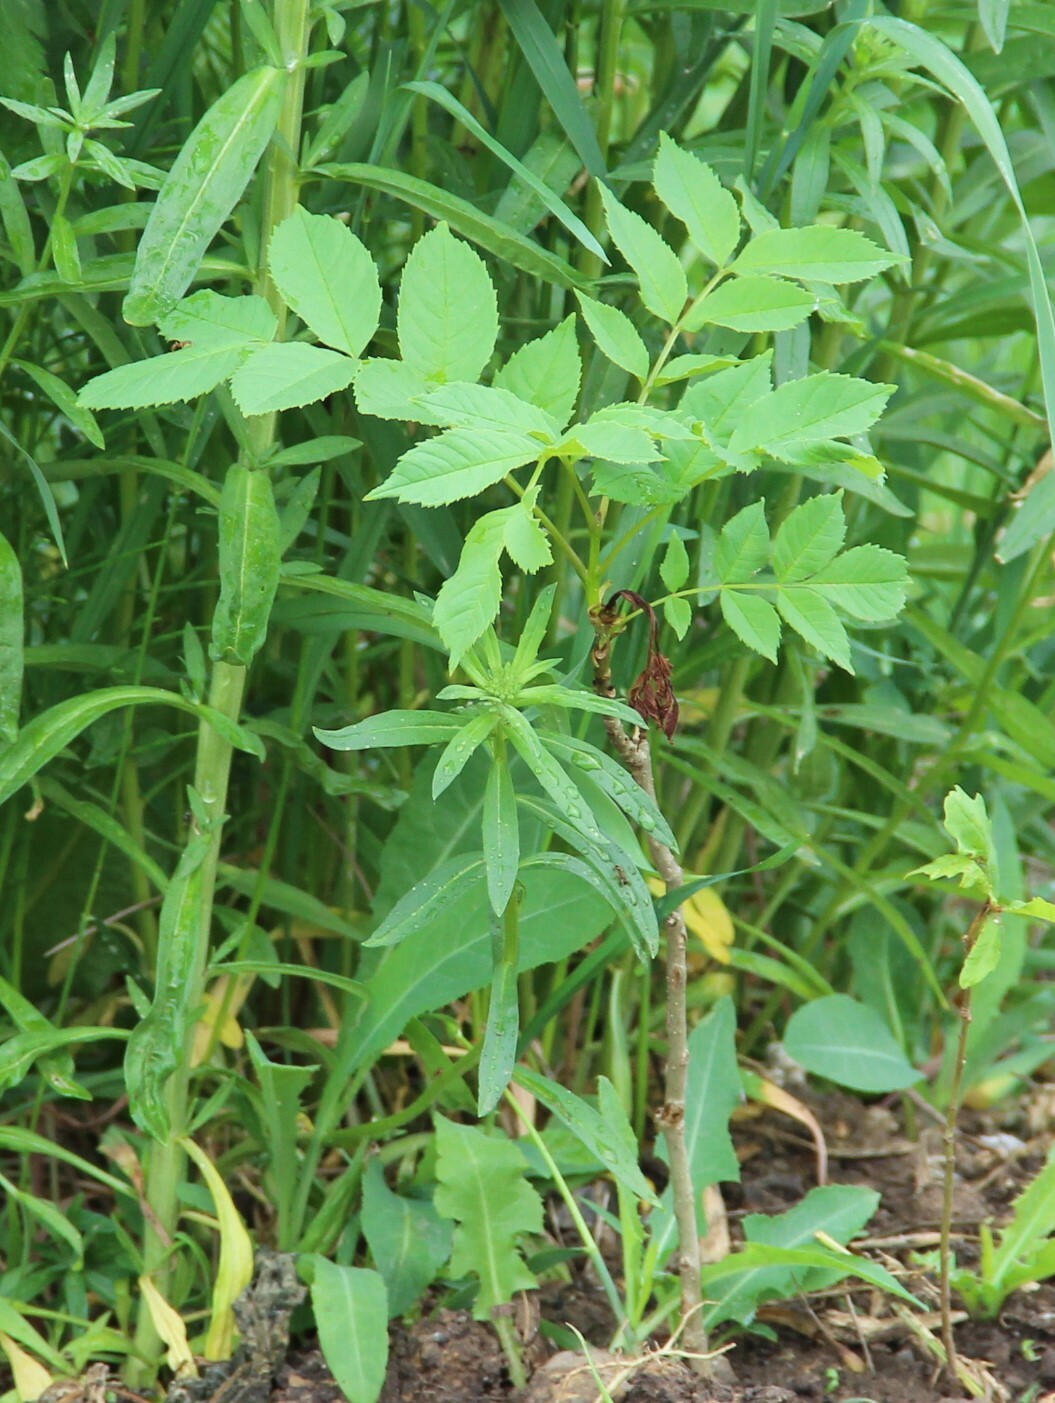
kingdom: Plantae
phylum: Tracheophyta
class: Magnoliopsida
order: Lamiales
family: Oleaceae
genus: Fraxinus
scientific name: Fraxinus excelsior
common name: European ash
